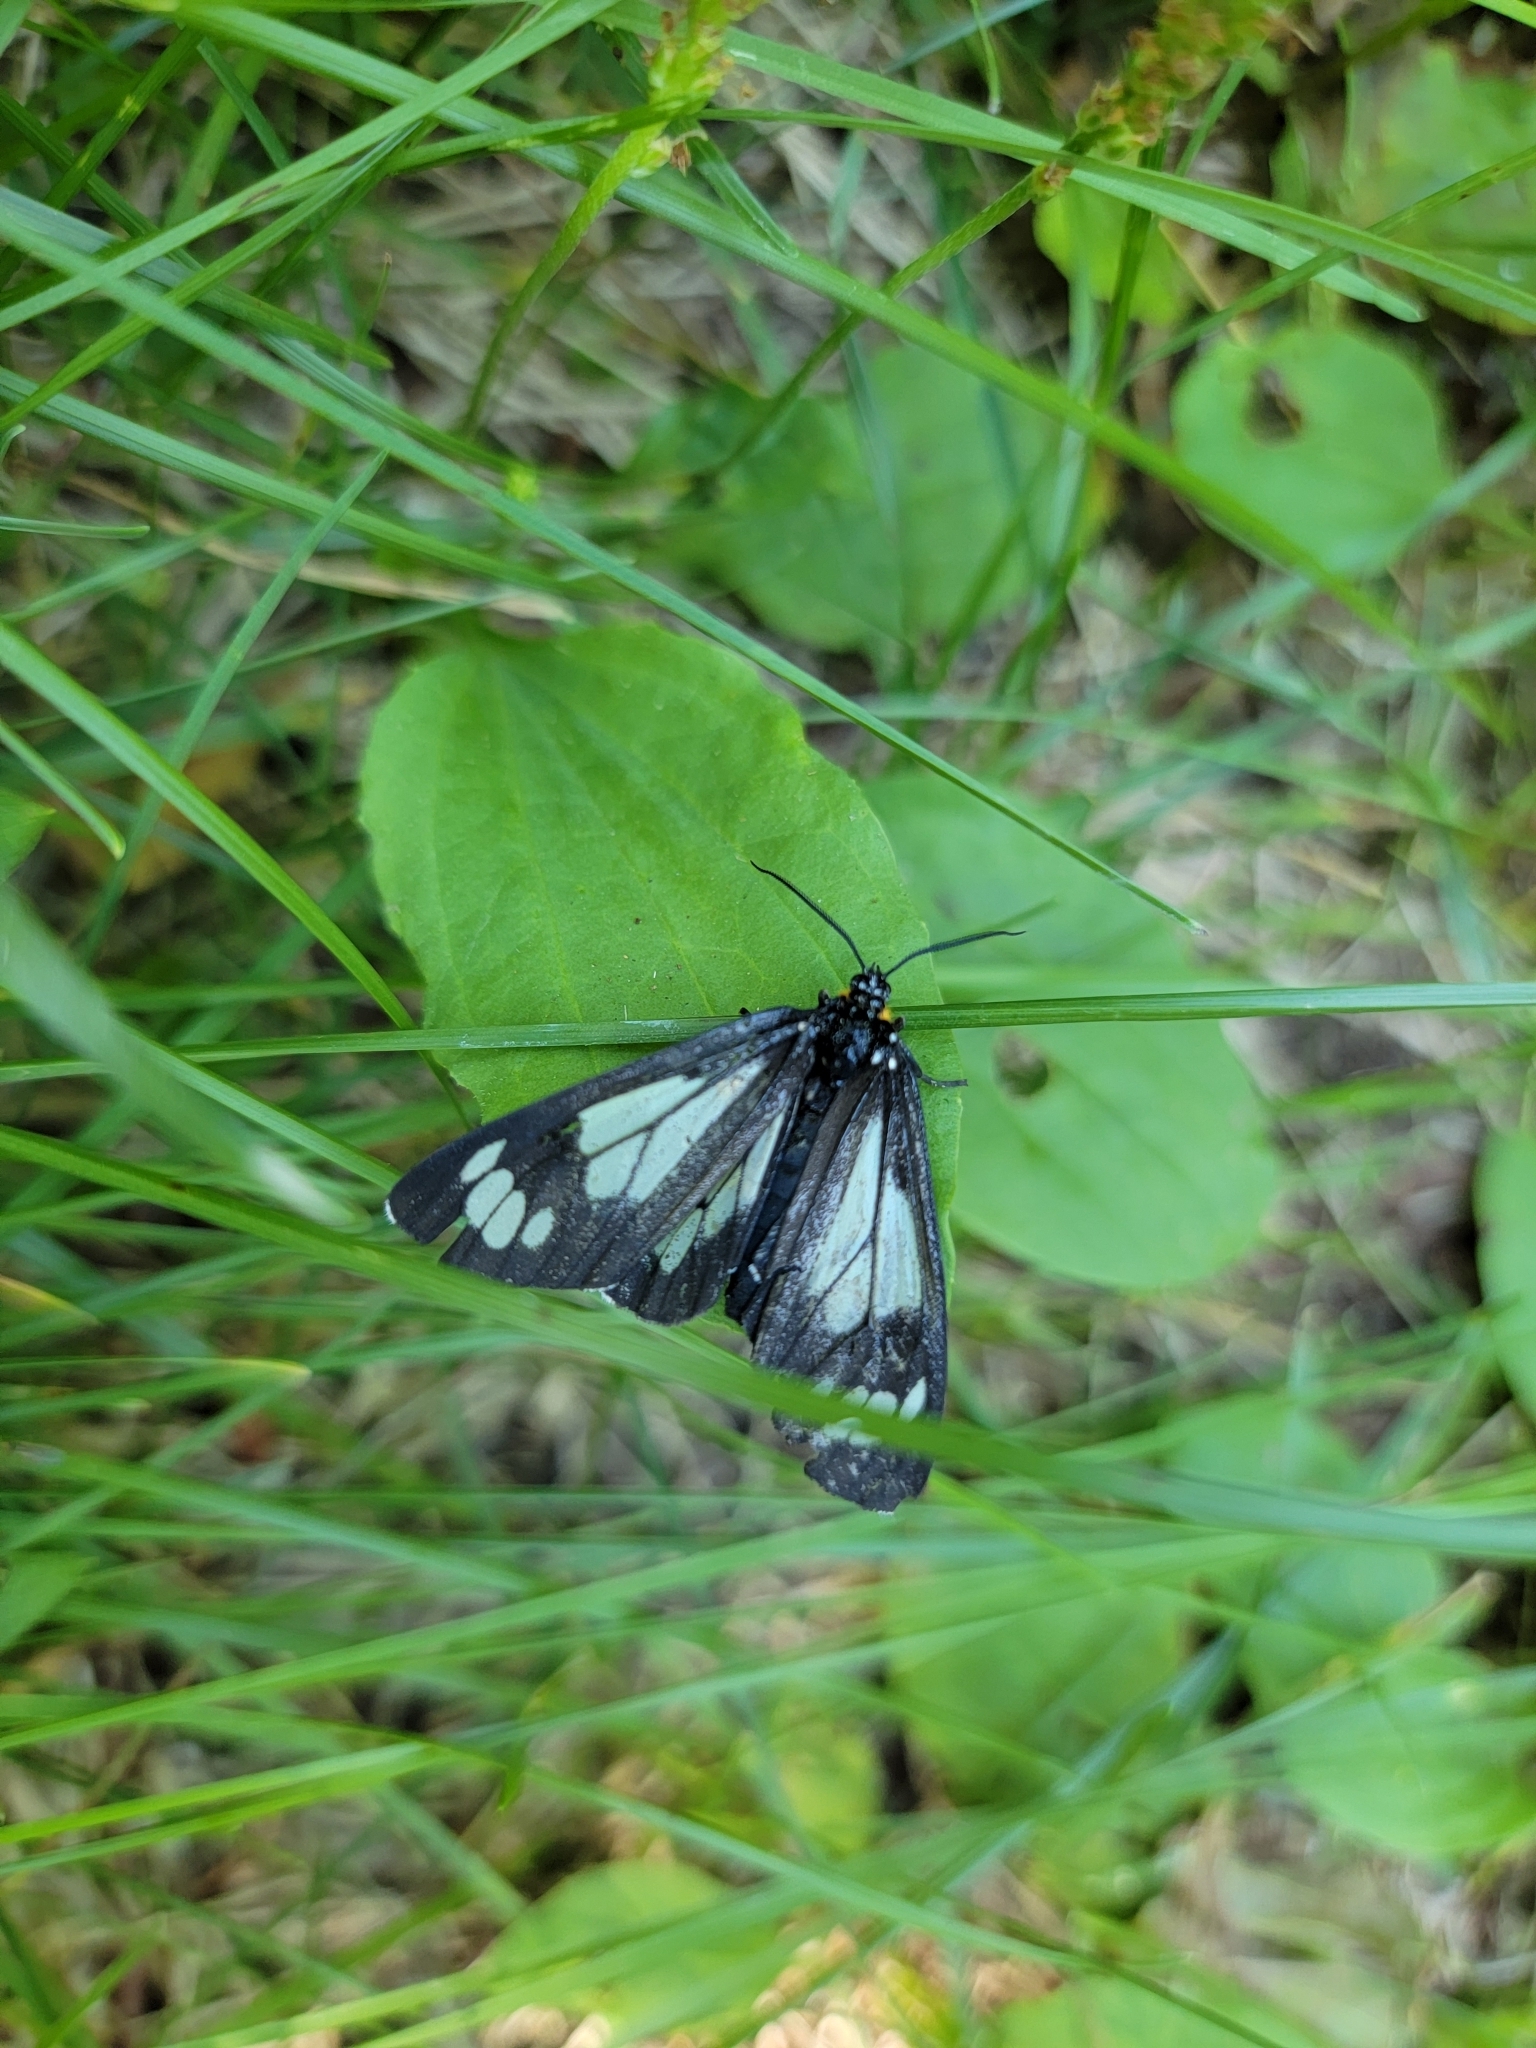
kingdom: Animalia
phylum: Arthropoda
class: Insecta
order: Lepidoptera
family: Erebidae
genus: Gnophaela
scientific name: Gnophaela vermiculata
